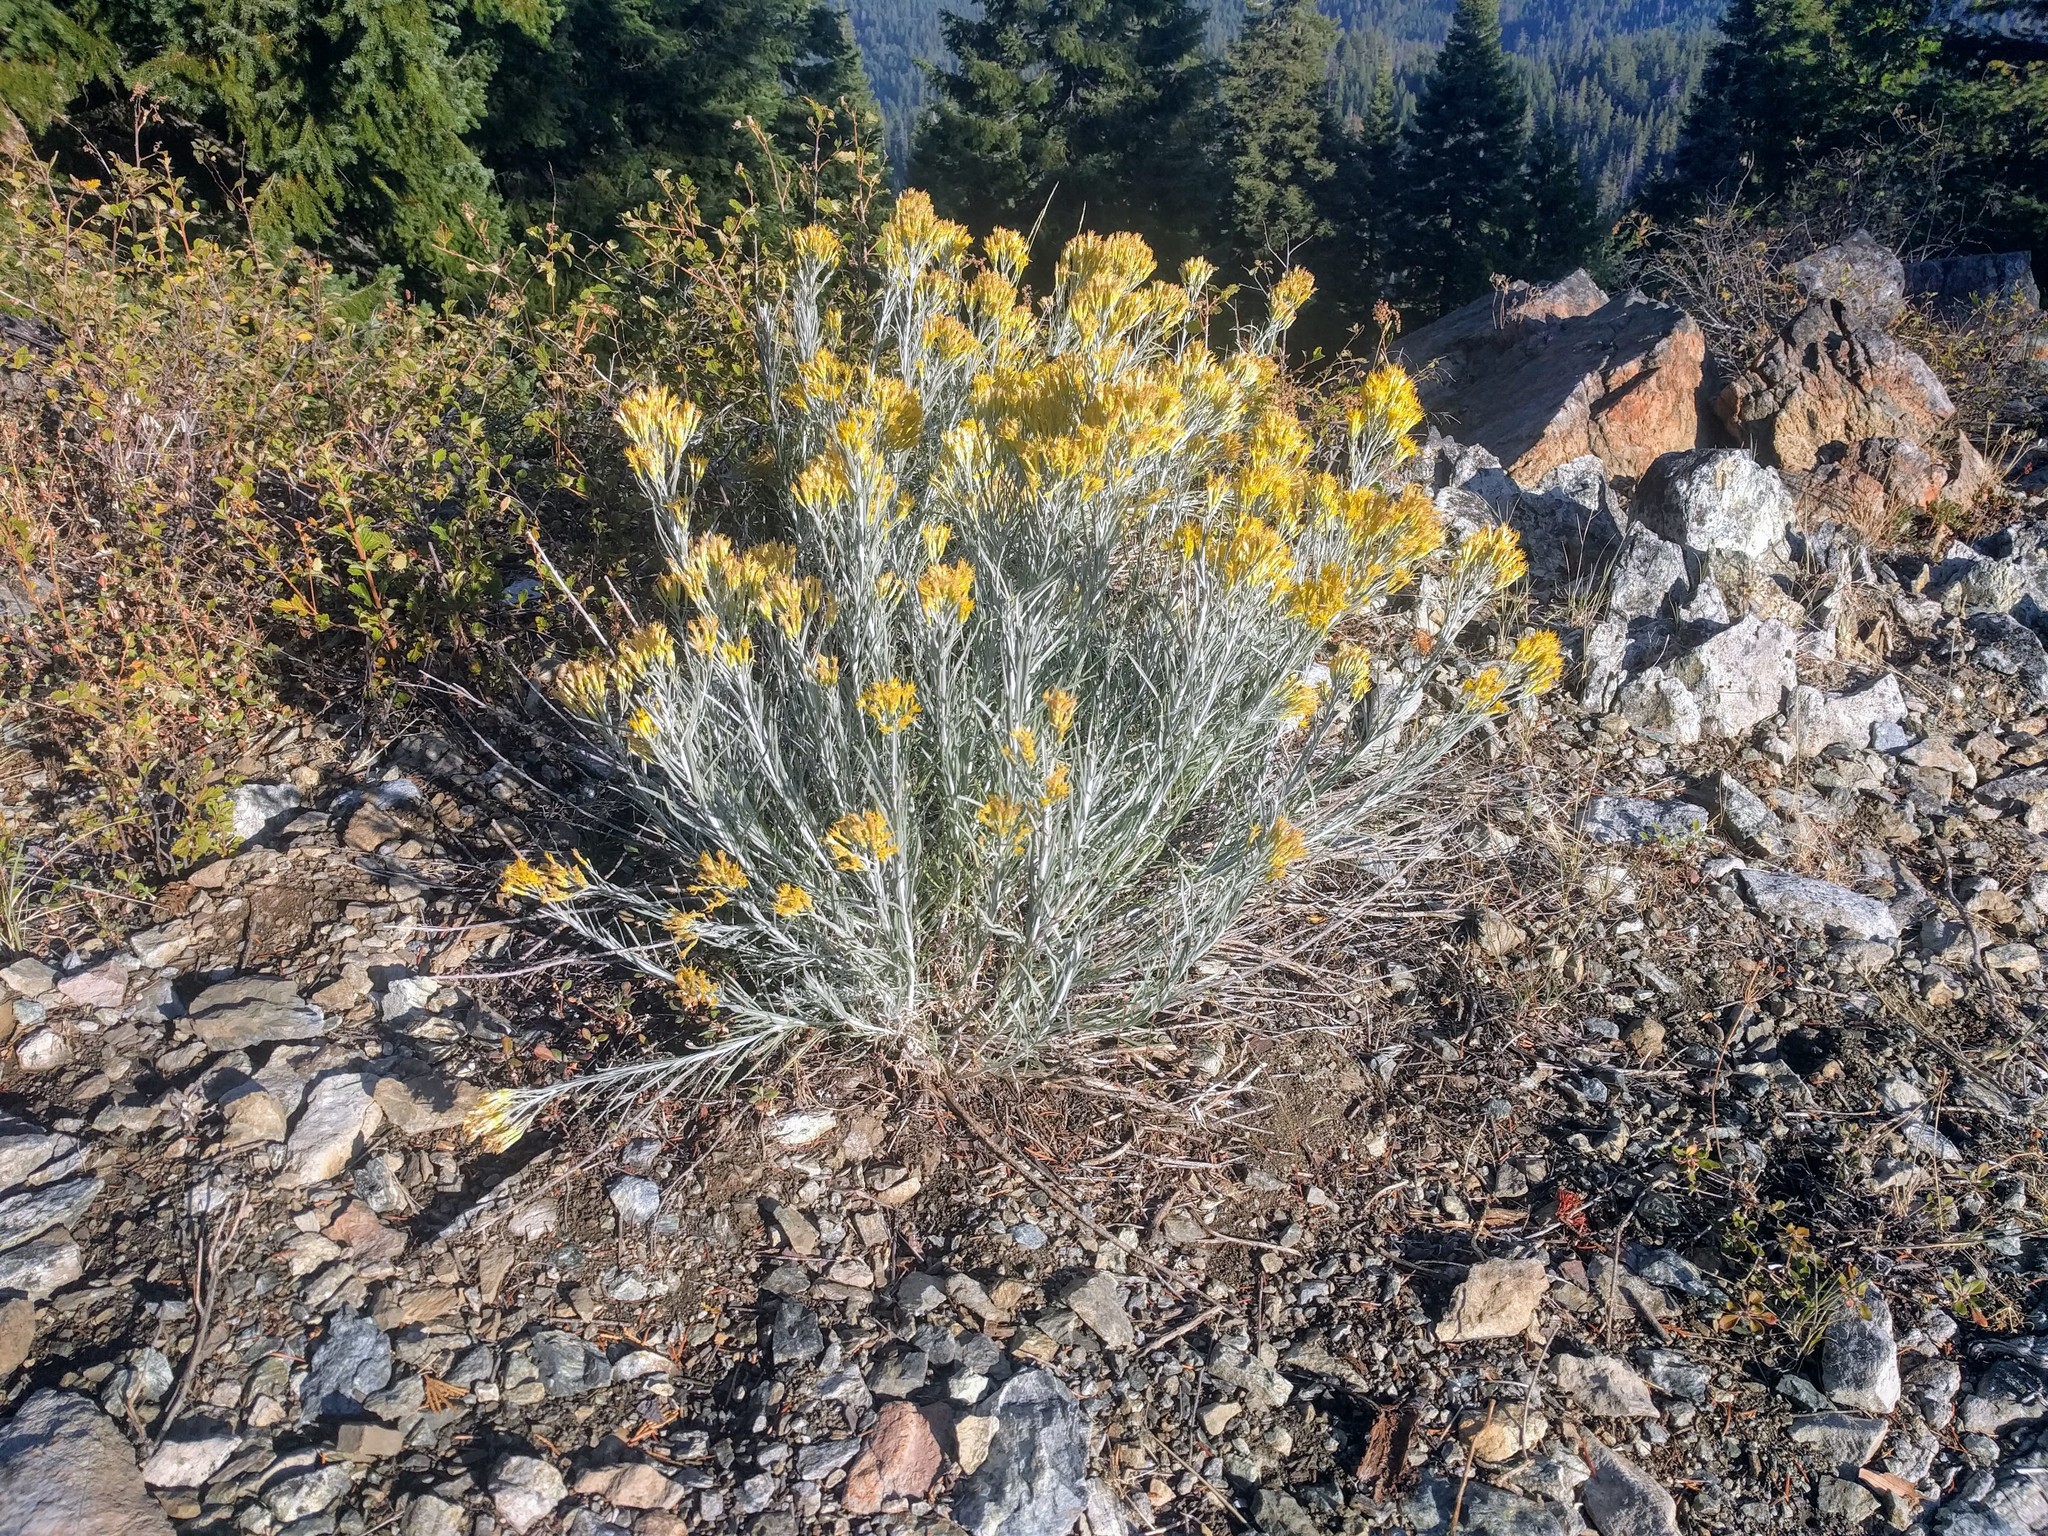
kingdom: Plantae
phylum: Tracheophyta
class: Magnoliopsida
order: Asterales
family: Asteraceae
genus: Ericameria
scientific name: Ericameria nauseosa
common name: Rubber rabbitbrush
